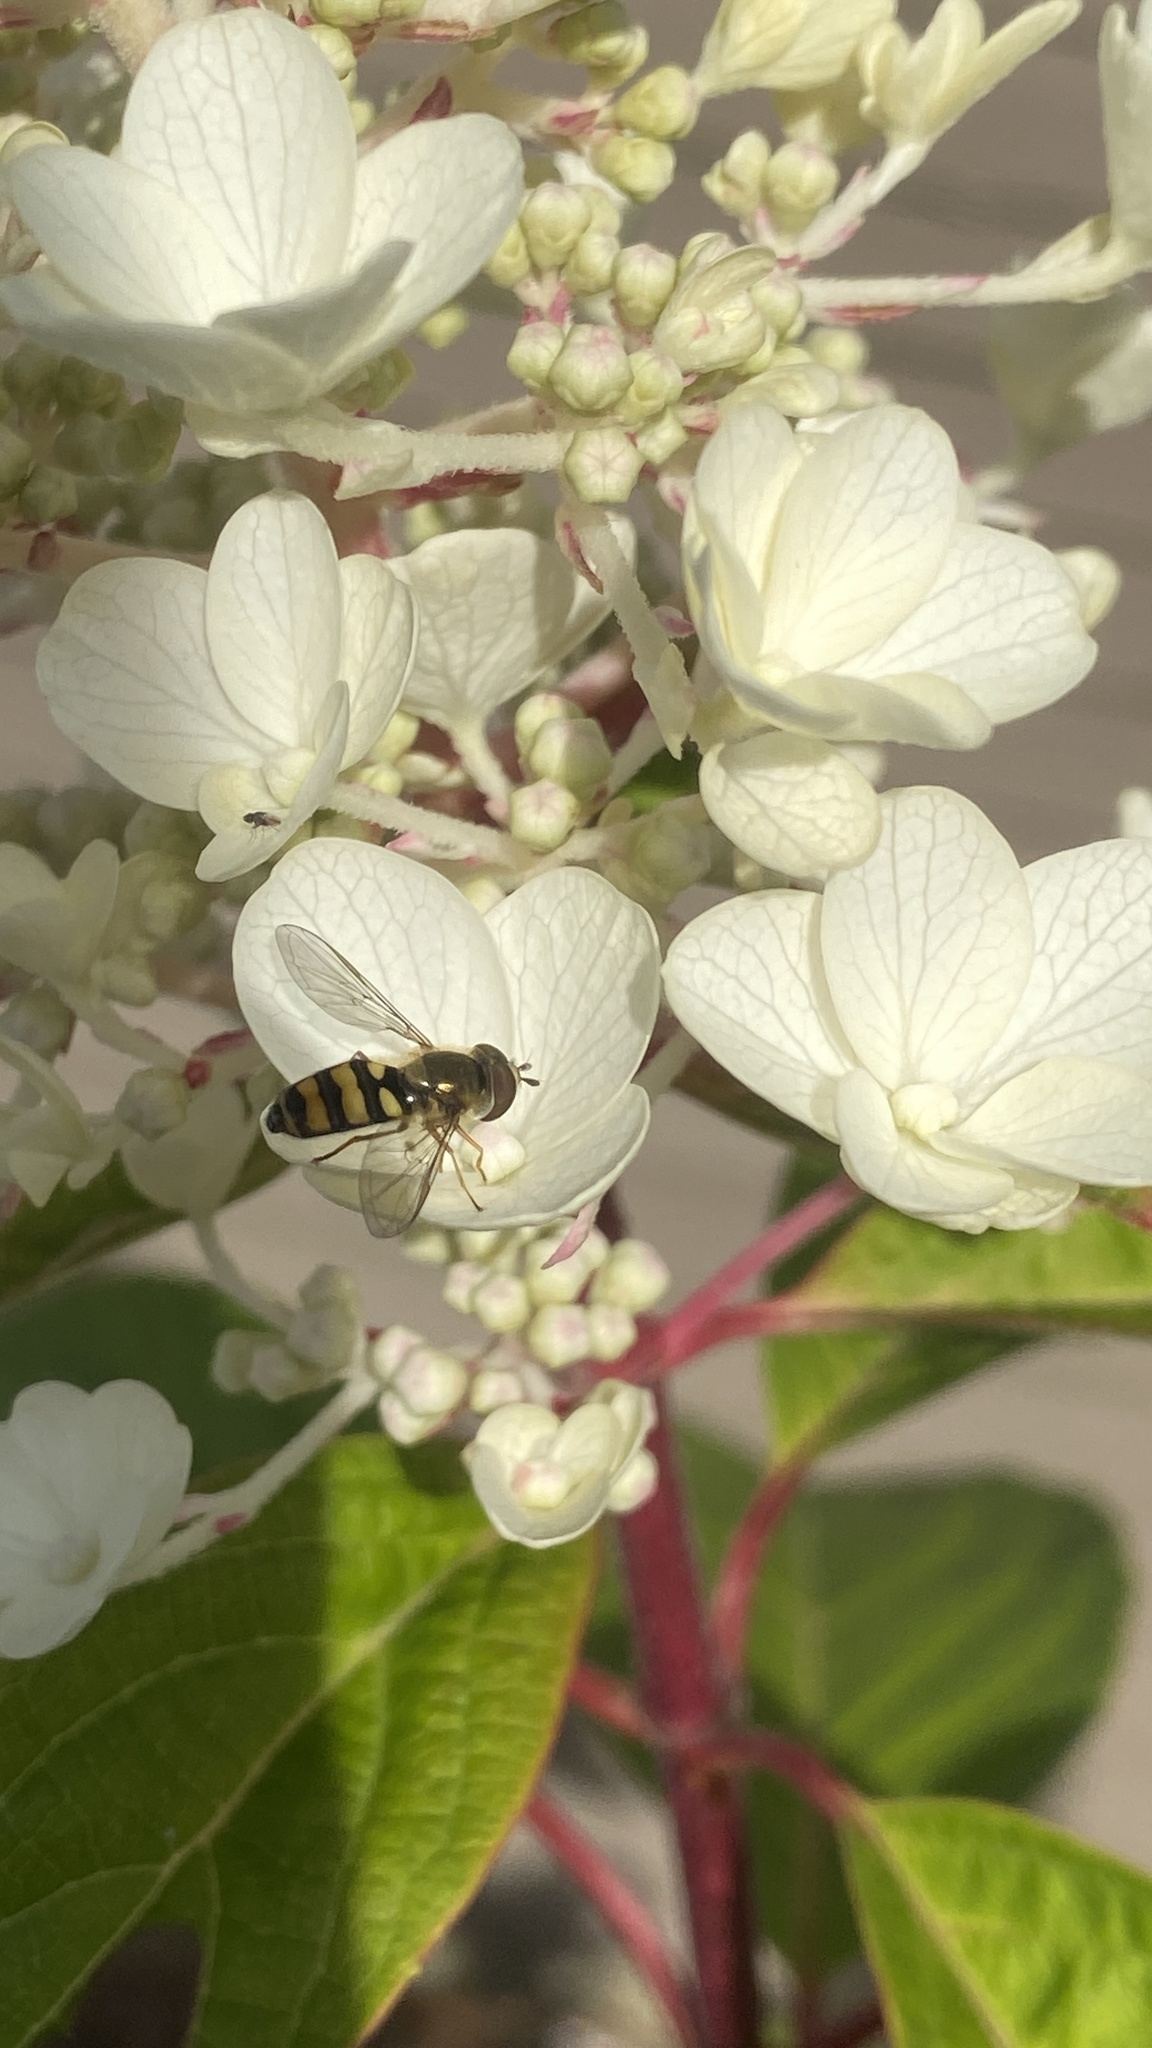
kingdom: Animalia
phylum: Arthropoda
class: Insecta
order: Diptera
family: Syrphidae
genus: Eupeodes
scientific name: Eupeodes
